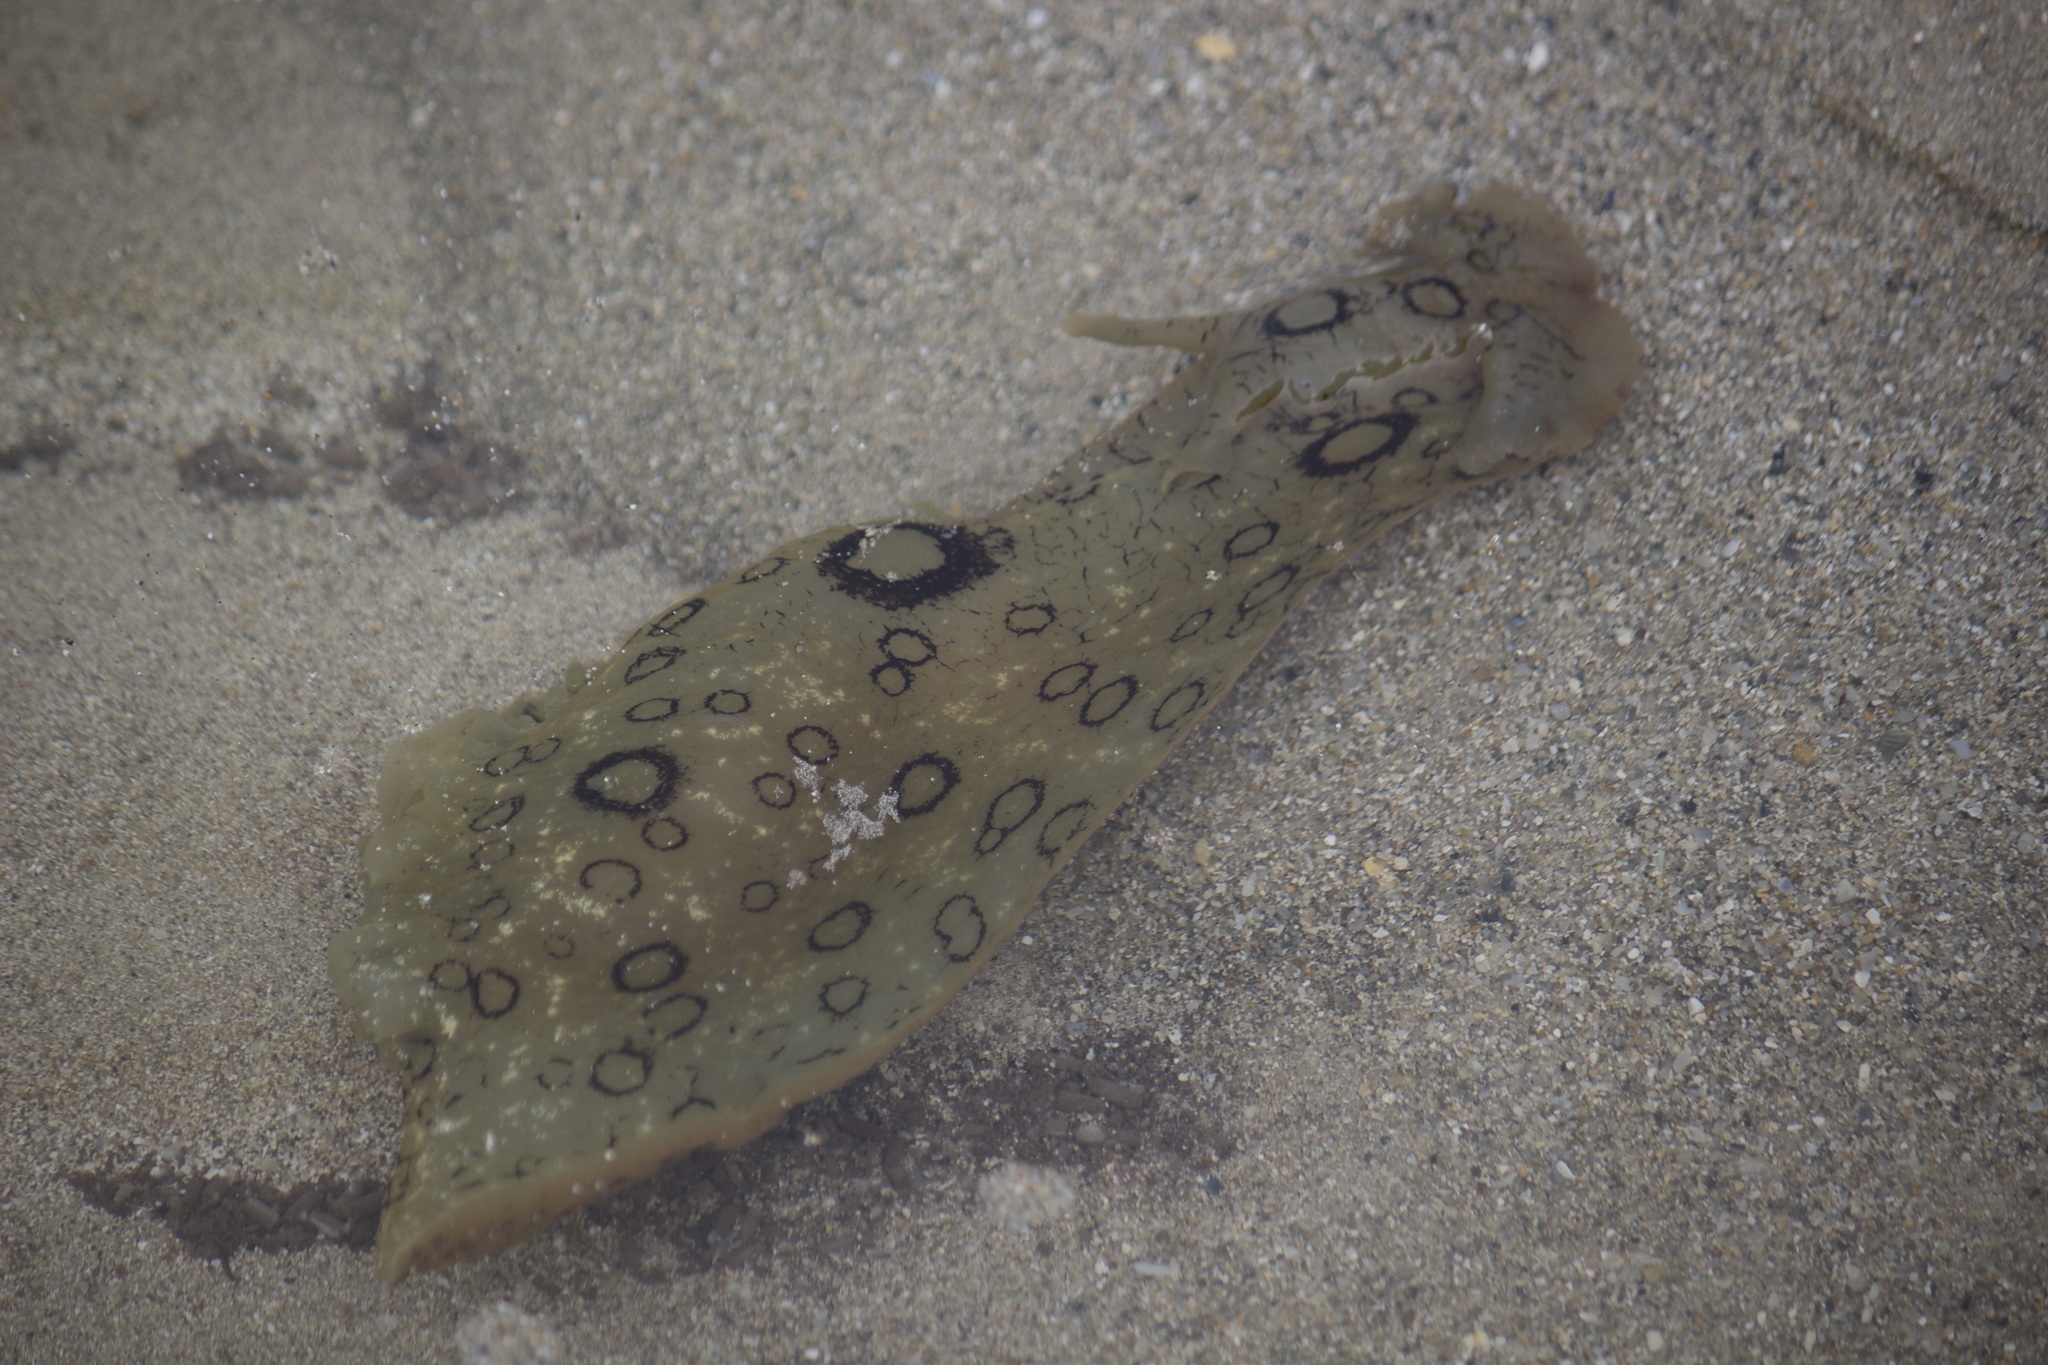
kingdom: Animalia
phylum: Mollusca
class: Gastropoda
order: Aplysiida
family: Aplysiidae
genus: Aplysia
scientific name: Aplysia dactylomela
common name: Large-spotted sea hare
